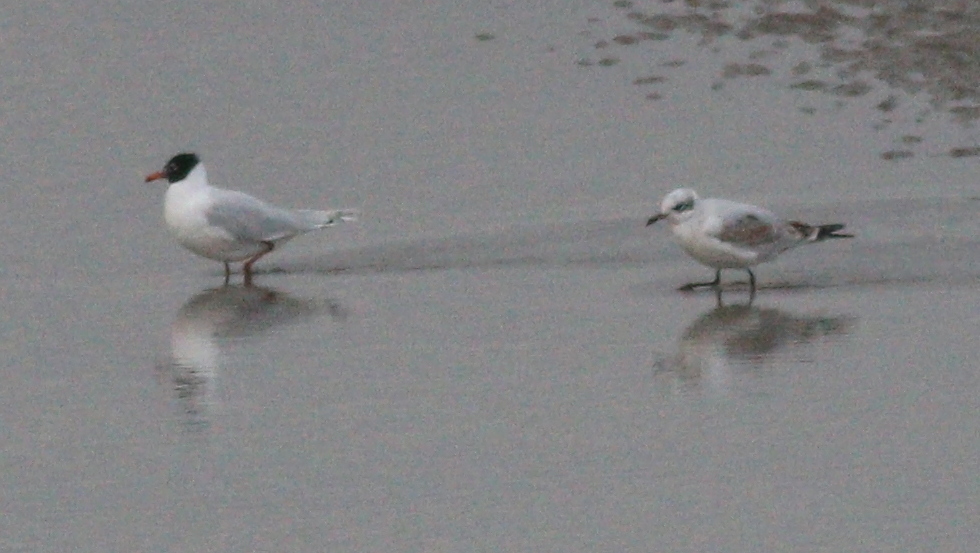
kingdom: Animalia
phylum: Chordata
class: Aves
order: Charadriiformes
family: Laridae
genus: Ichthyaetus
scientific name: Ichthyaetus melanocephalus
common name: Mediterranean gull
